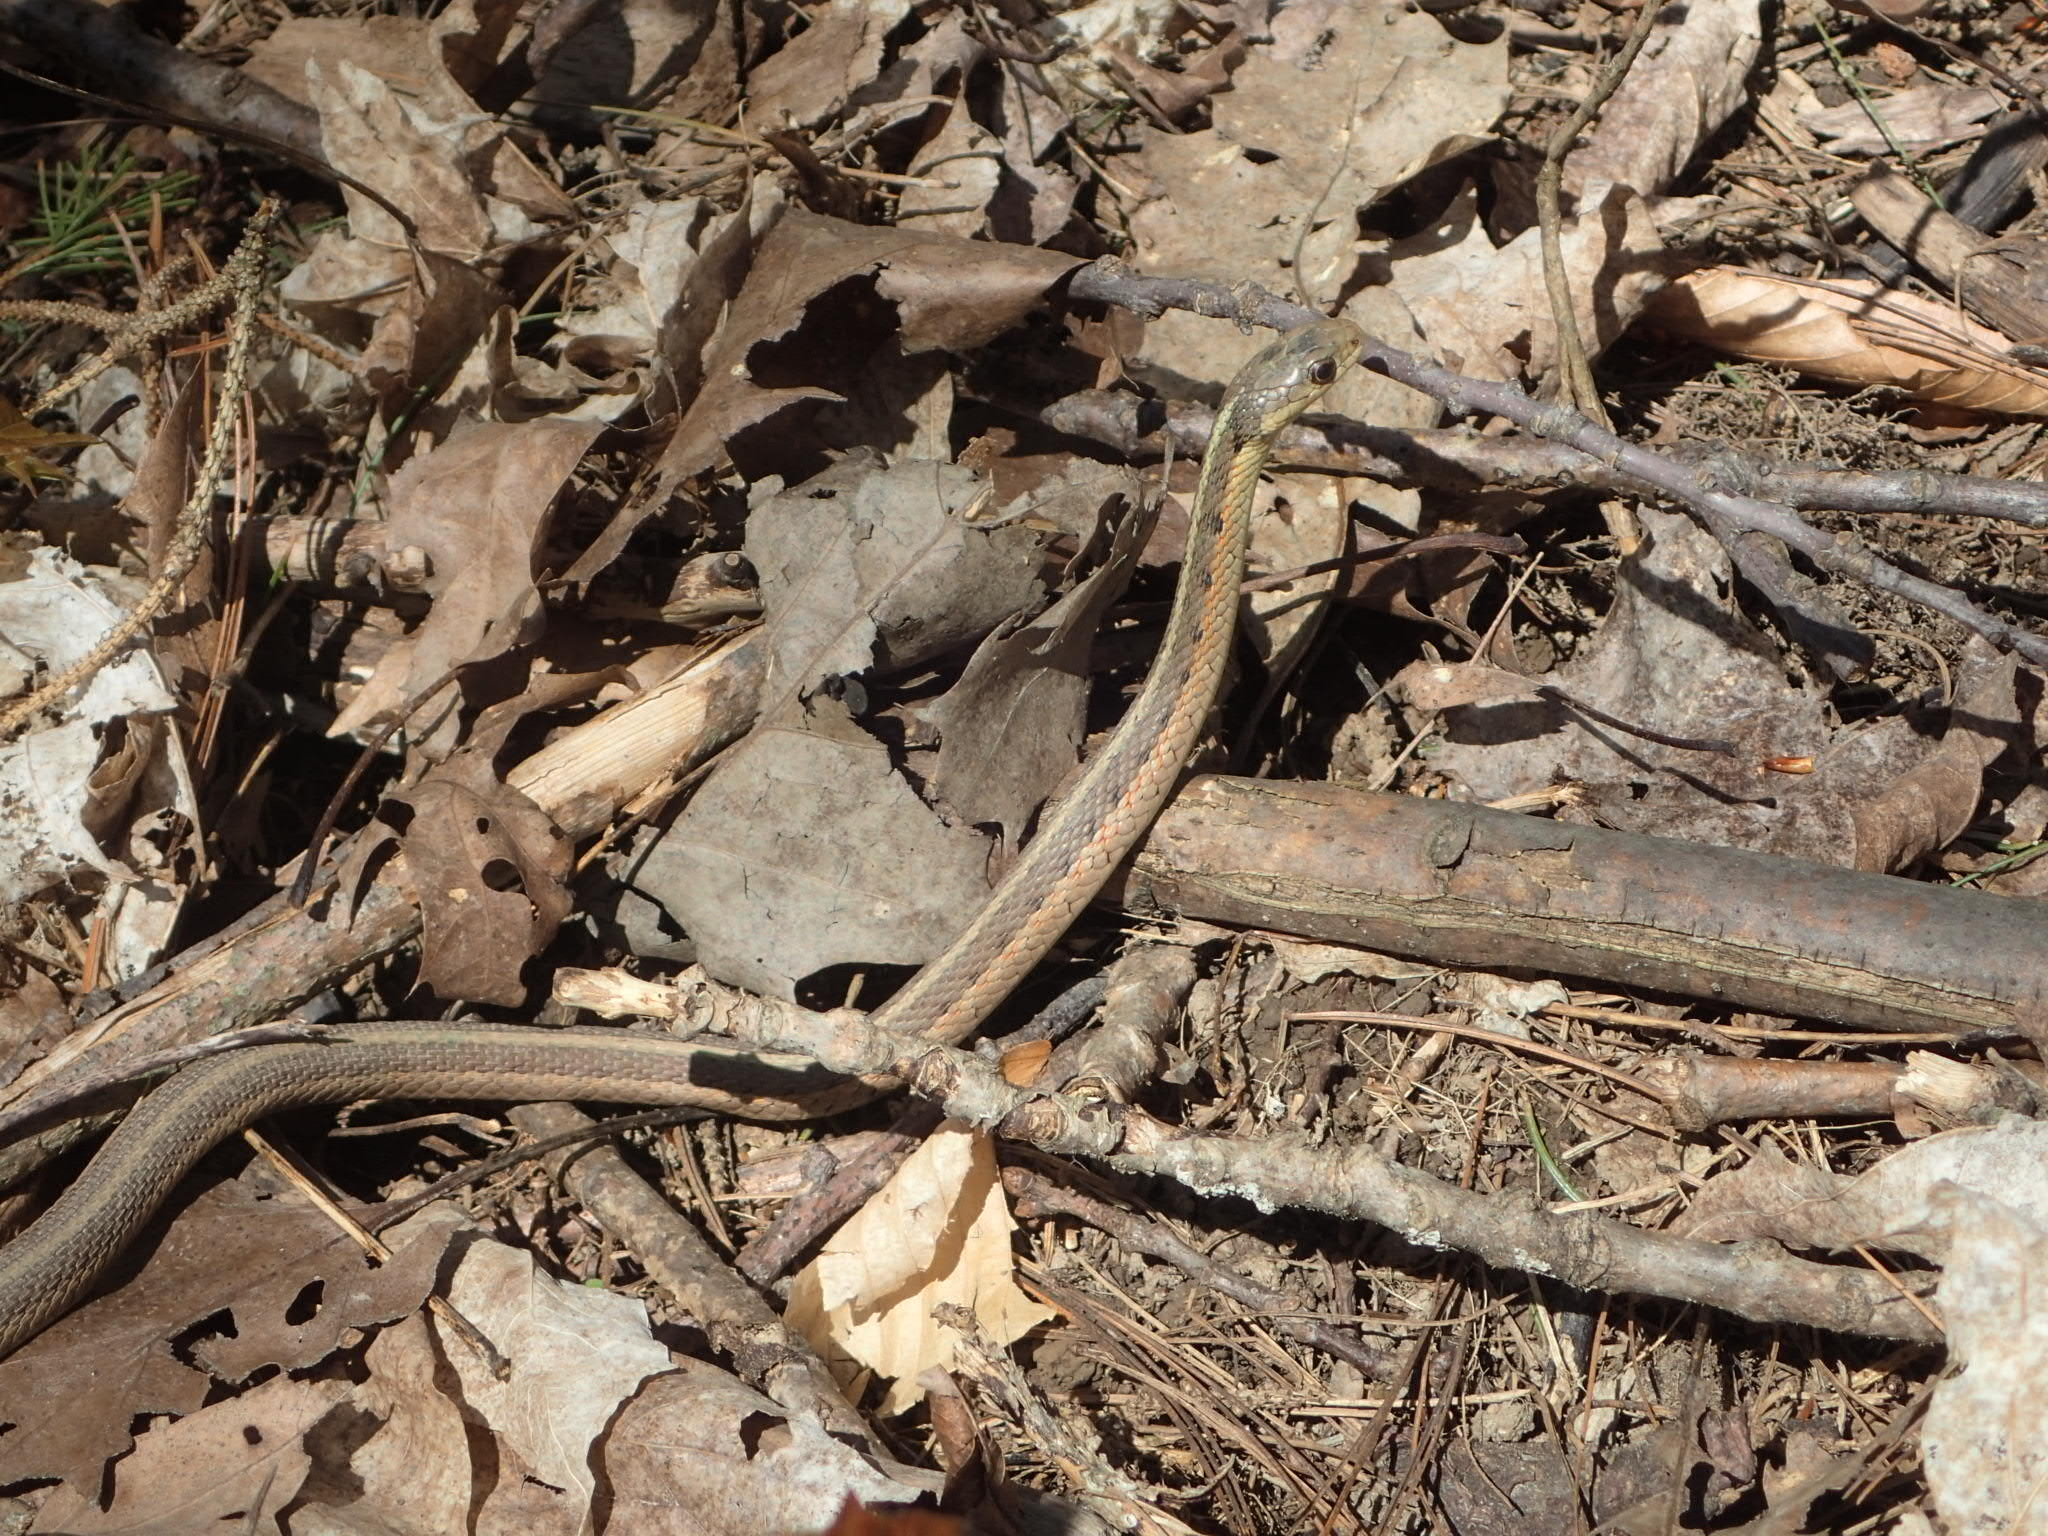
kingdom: Animalia
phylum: Chordata
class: Squamata
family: Colubridae
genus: Thamnophis
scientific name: Thamnophis sirtalis
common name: Common garter snake
